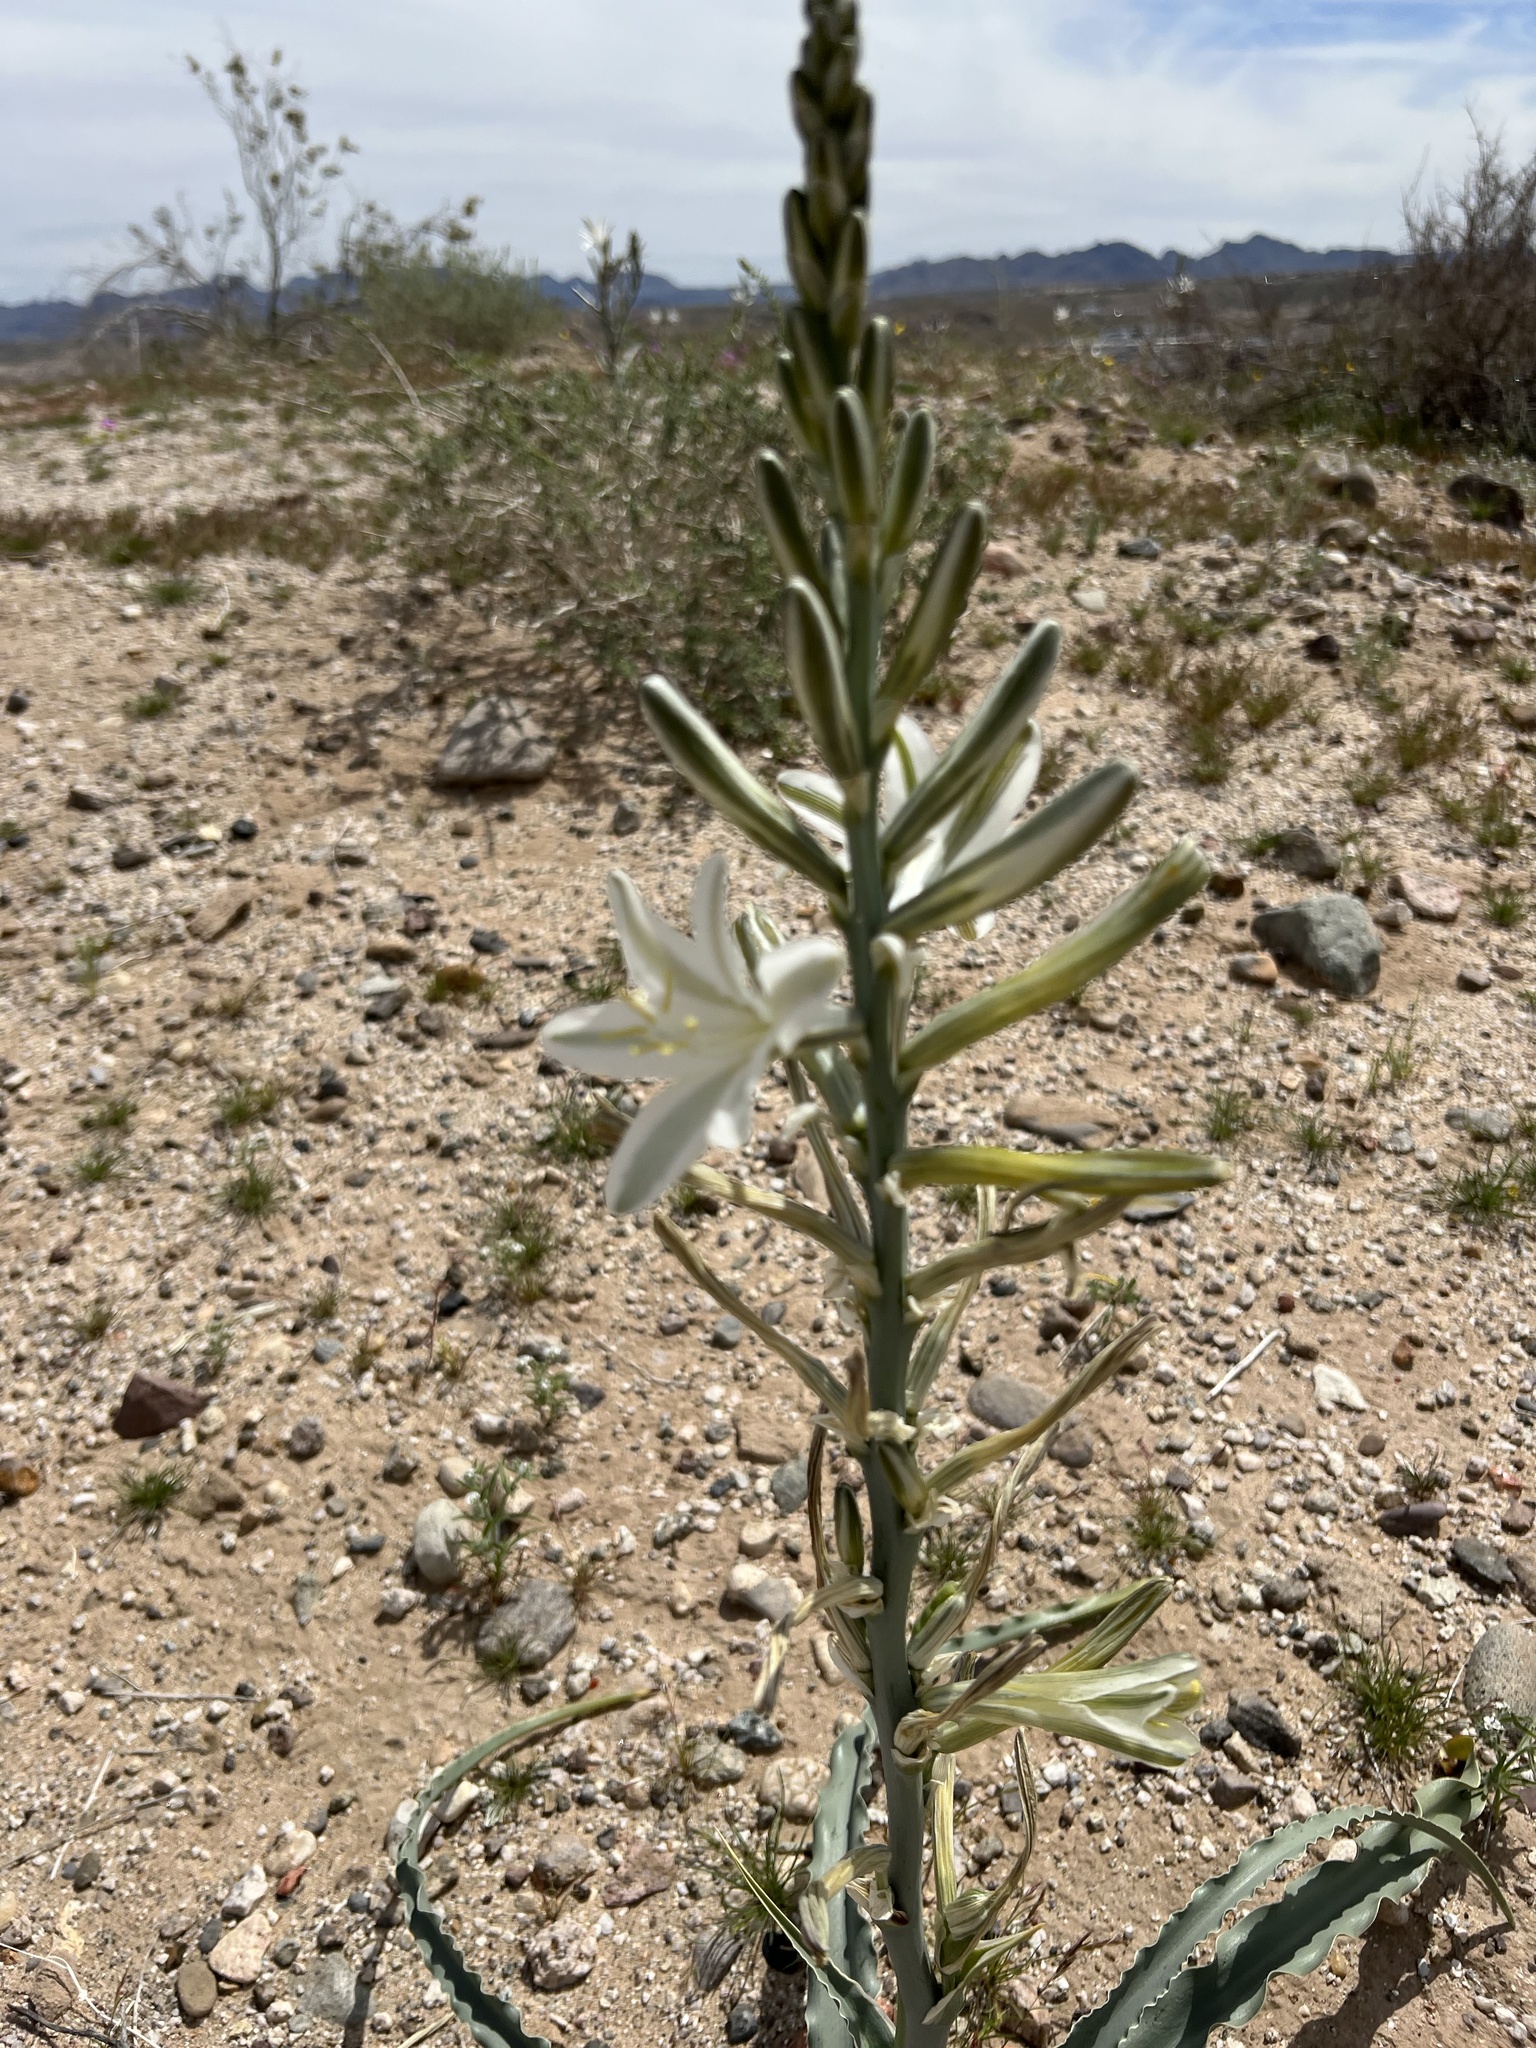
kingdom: Plantae
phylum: Tracheophyta
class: Liliopsida
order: Asparagales
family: Asparagaceae
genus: Hesperocallis
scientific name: Hesperocallis undulata
